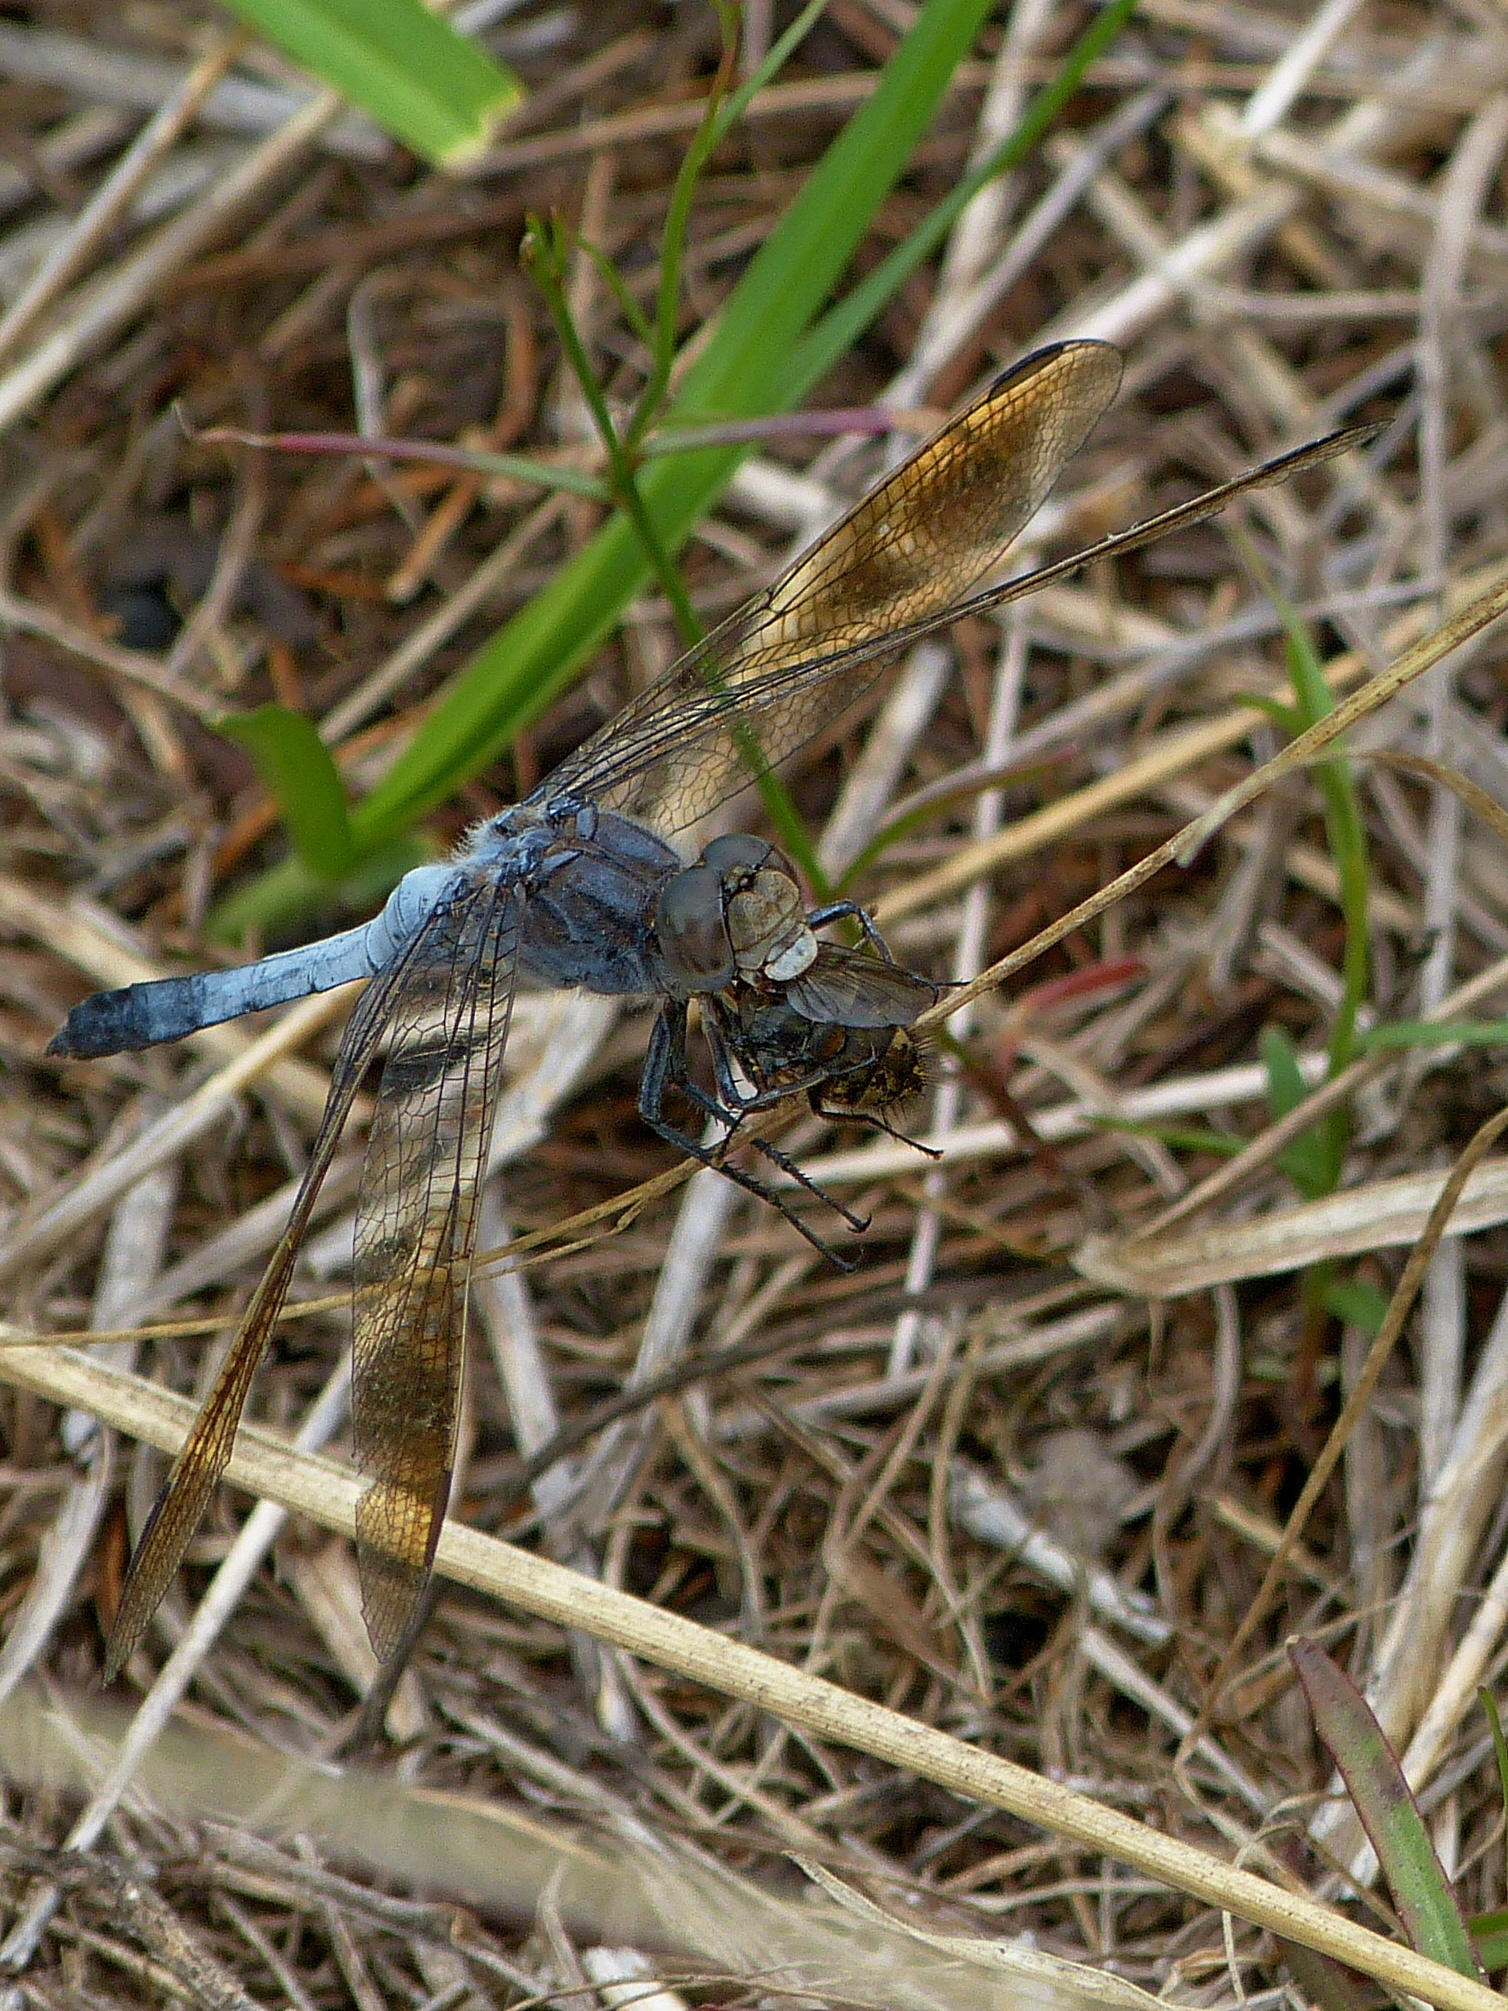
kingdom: Animalia
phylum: Arthropoda
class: Insecta
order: Odonata
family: Libellulidae
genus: Orthetrum
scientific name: Orthetrum caledonicum
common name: Blue skimmer
